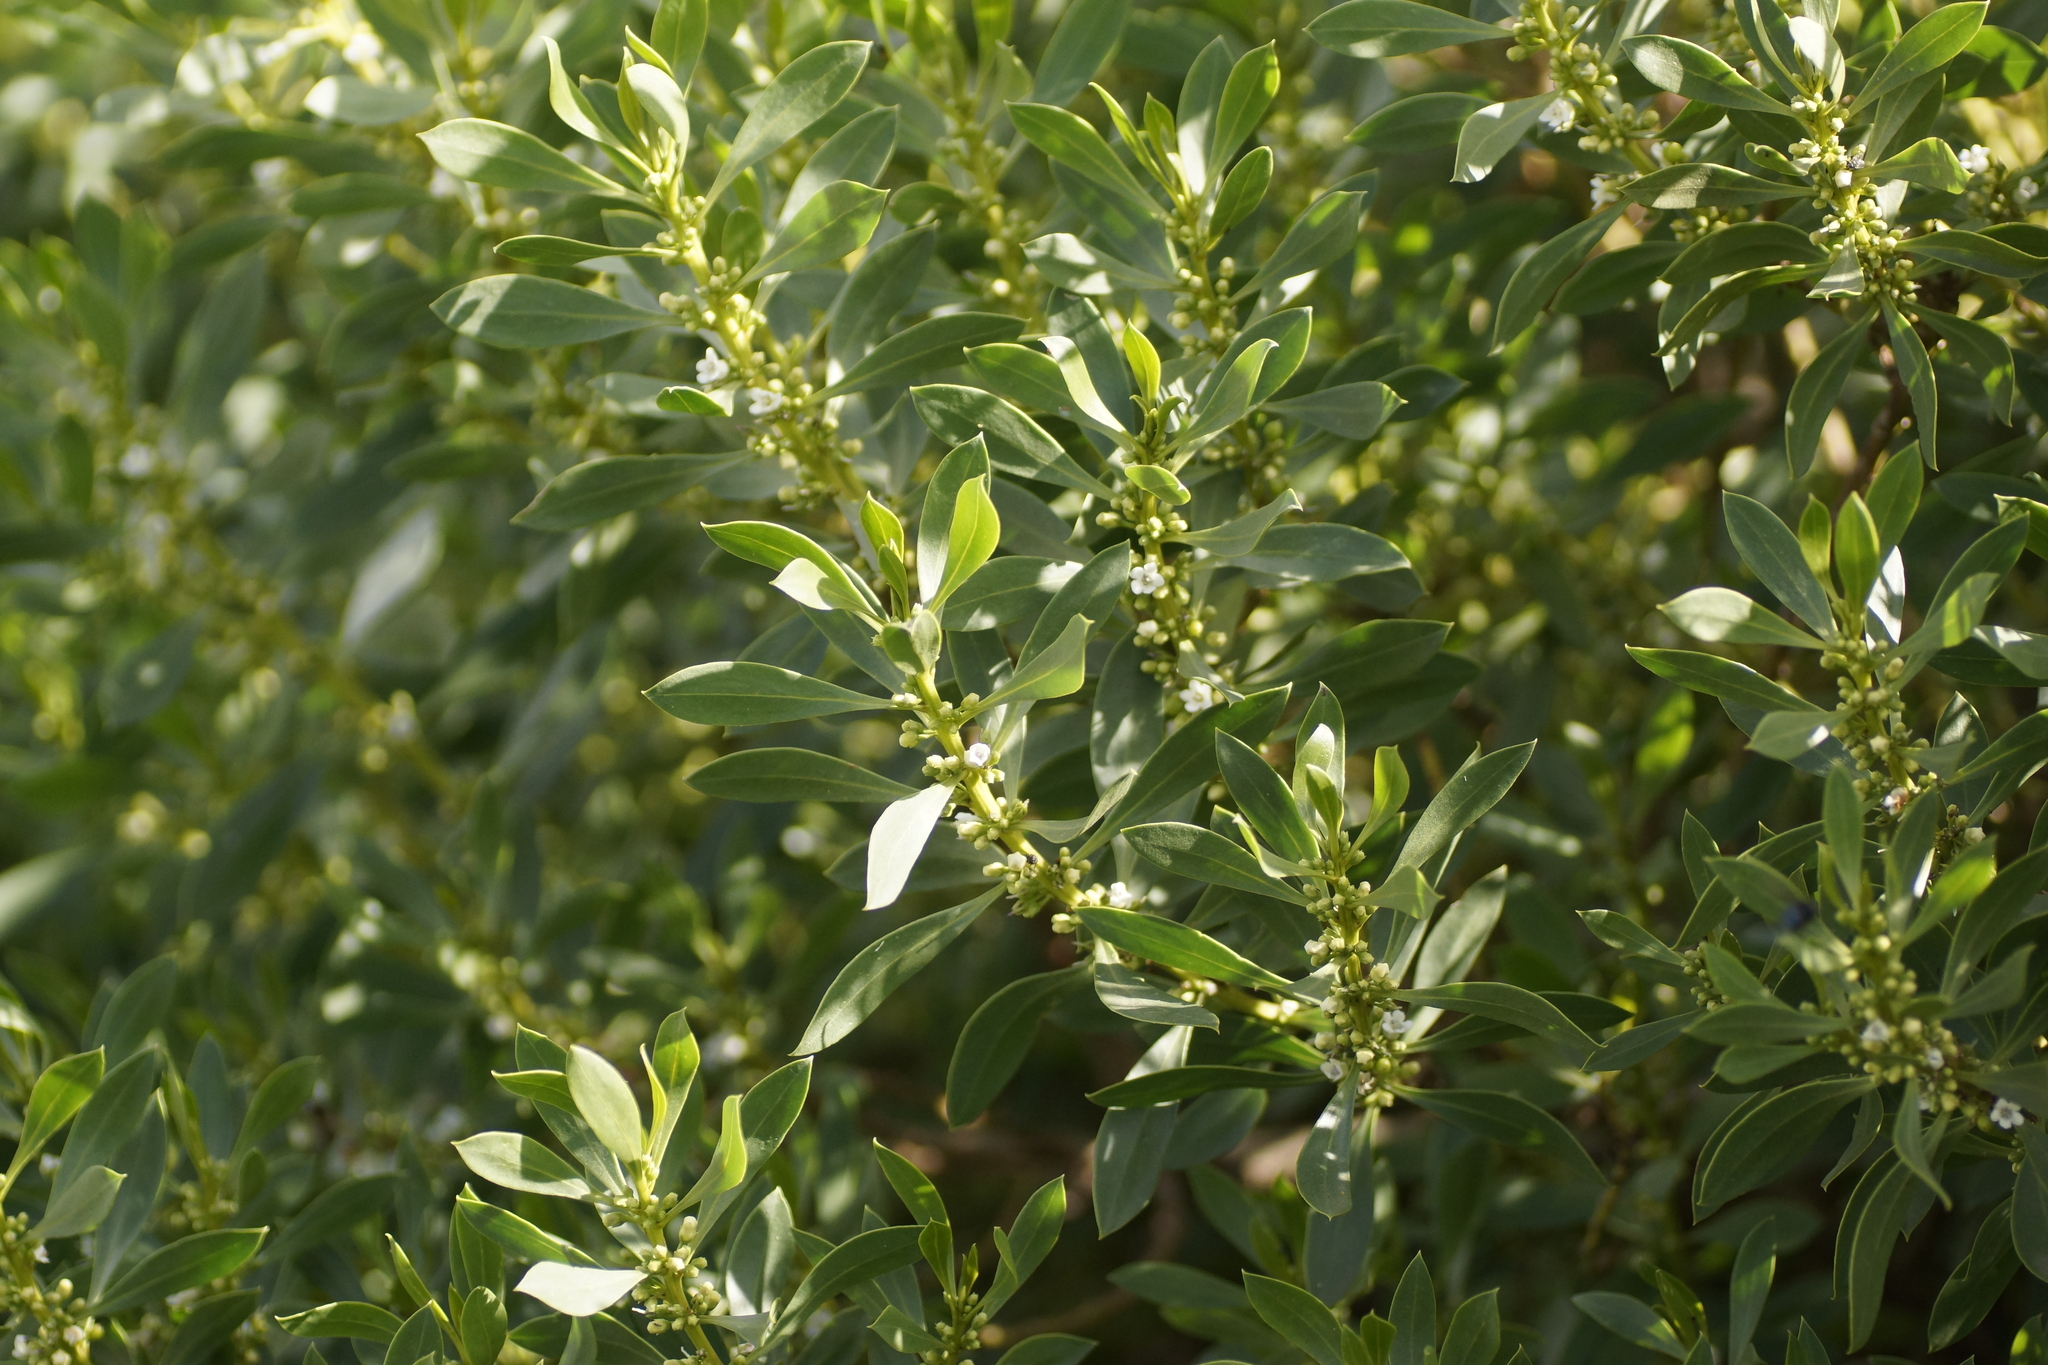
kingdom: Plantae
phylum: Tracheophyta
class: Magnoliopsida
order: Lamiales
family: Scrophulariaceae
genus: Myoporum
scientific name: Myoporum insulare
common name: Common boobialla
